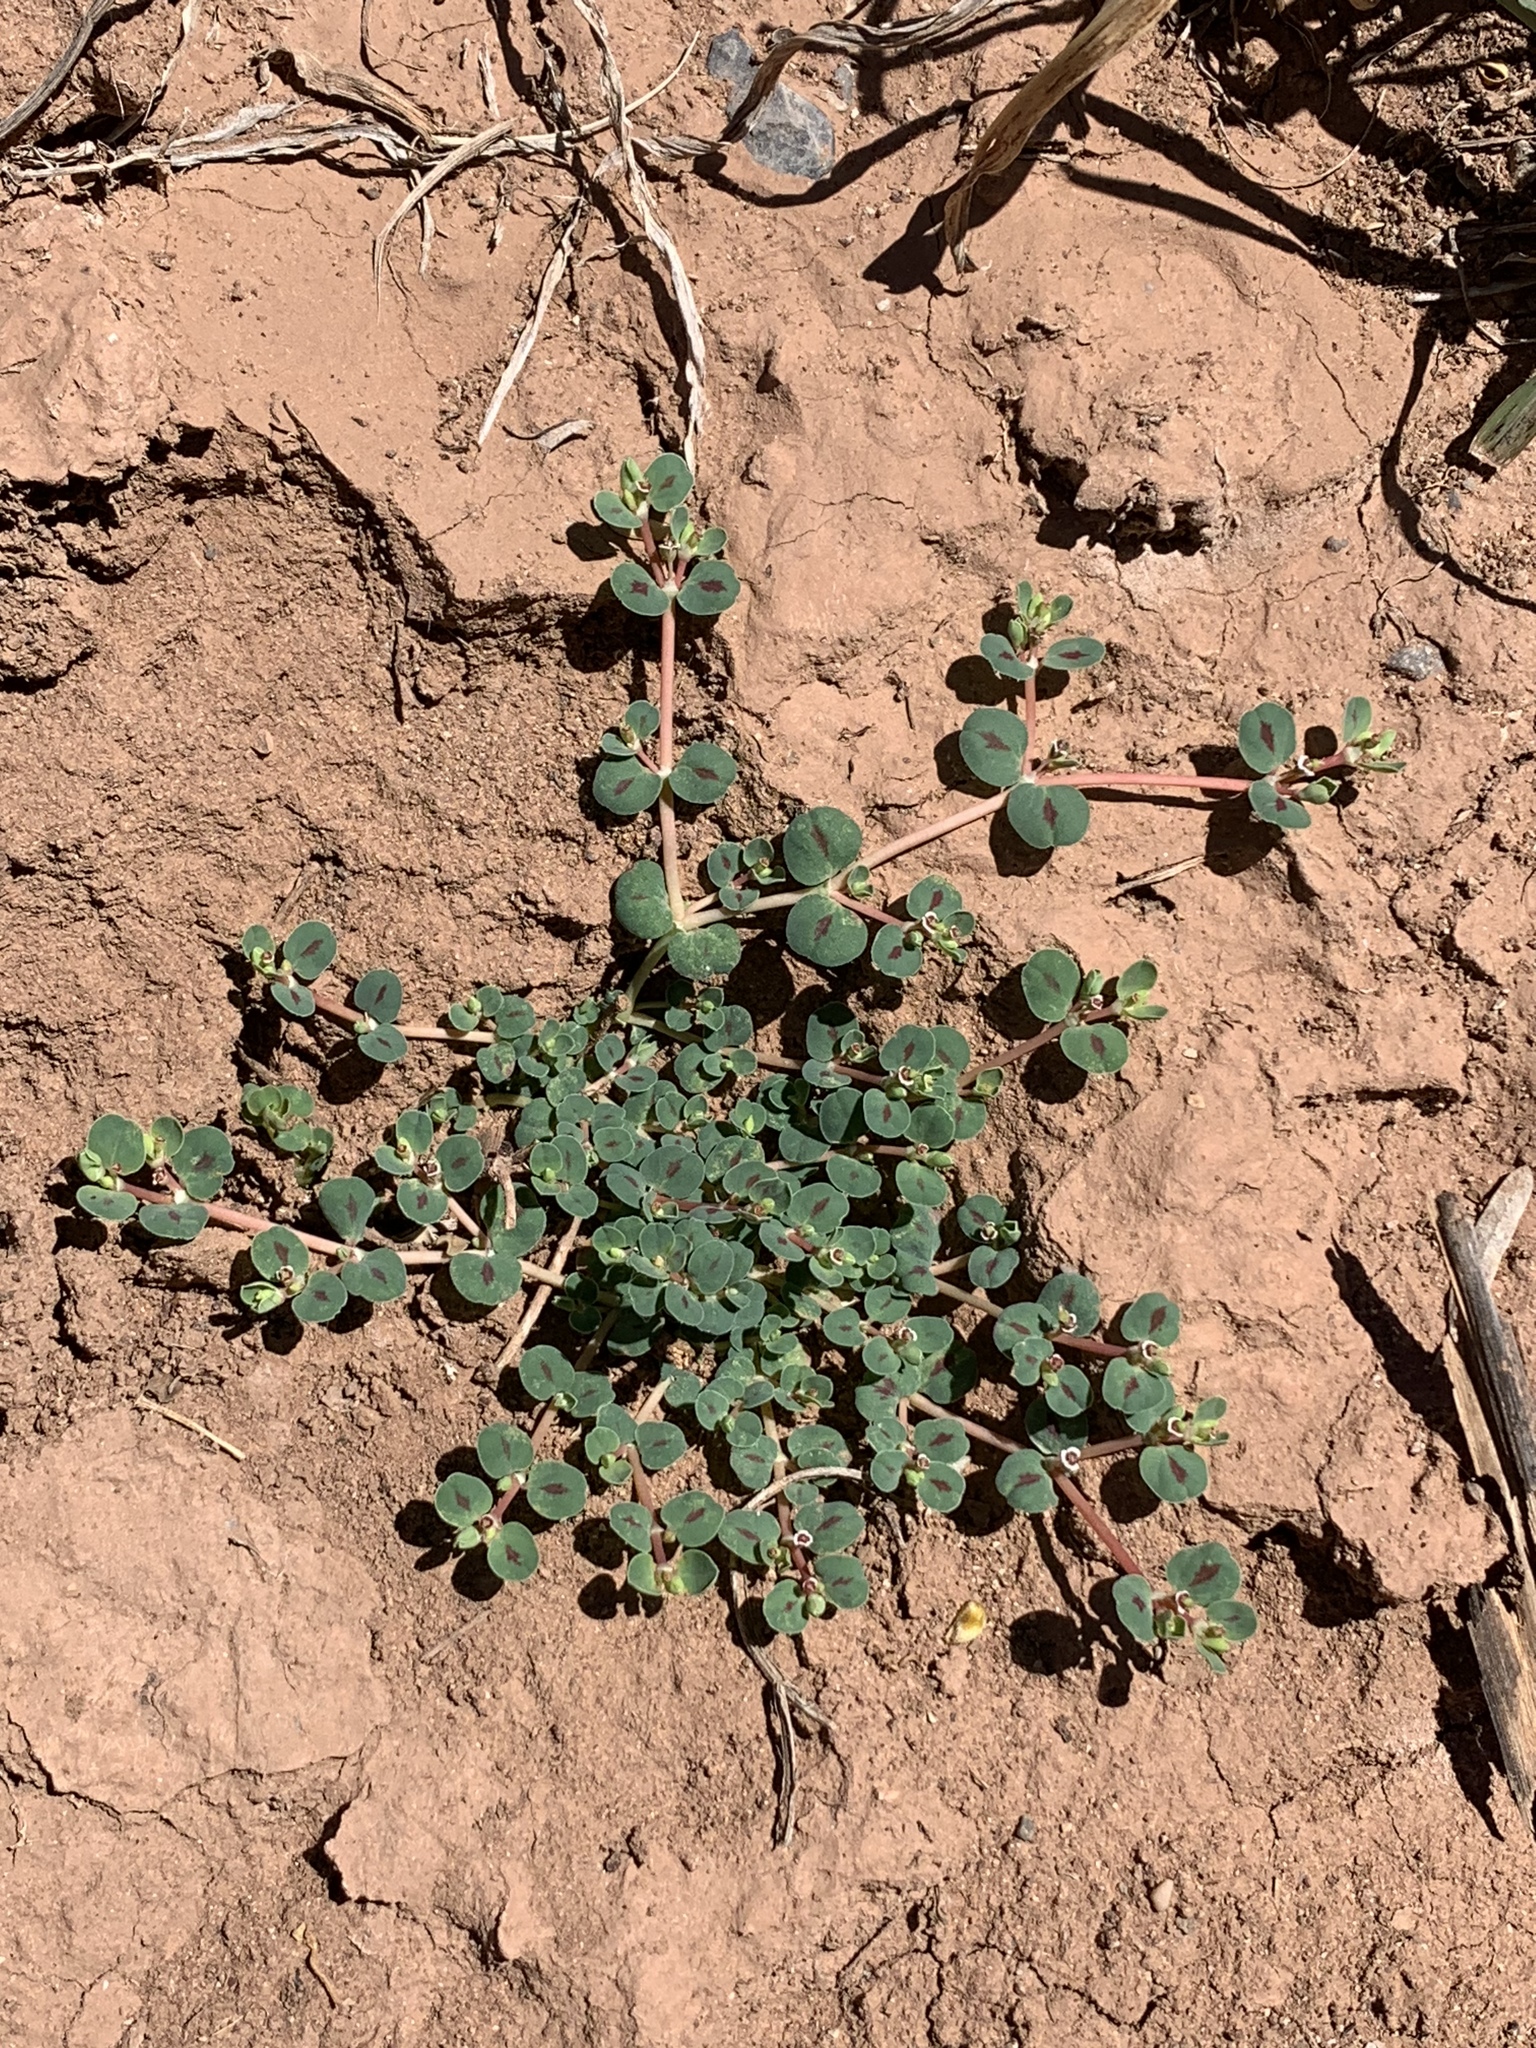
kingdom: Plantae
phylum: Tracheophyta
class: Magnoliopsida
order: Malpighiales
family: Euphorbiaceae
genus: Euphorbia
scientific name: Euphorbia albomarginata
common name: Whitemargin sandmat
